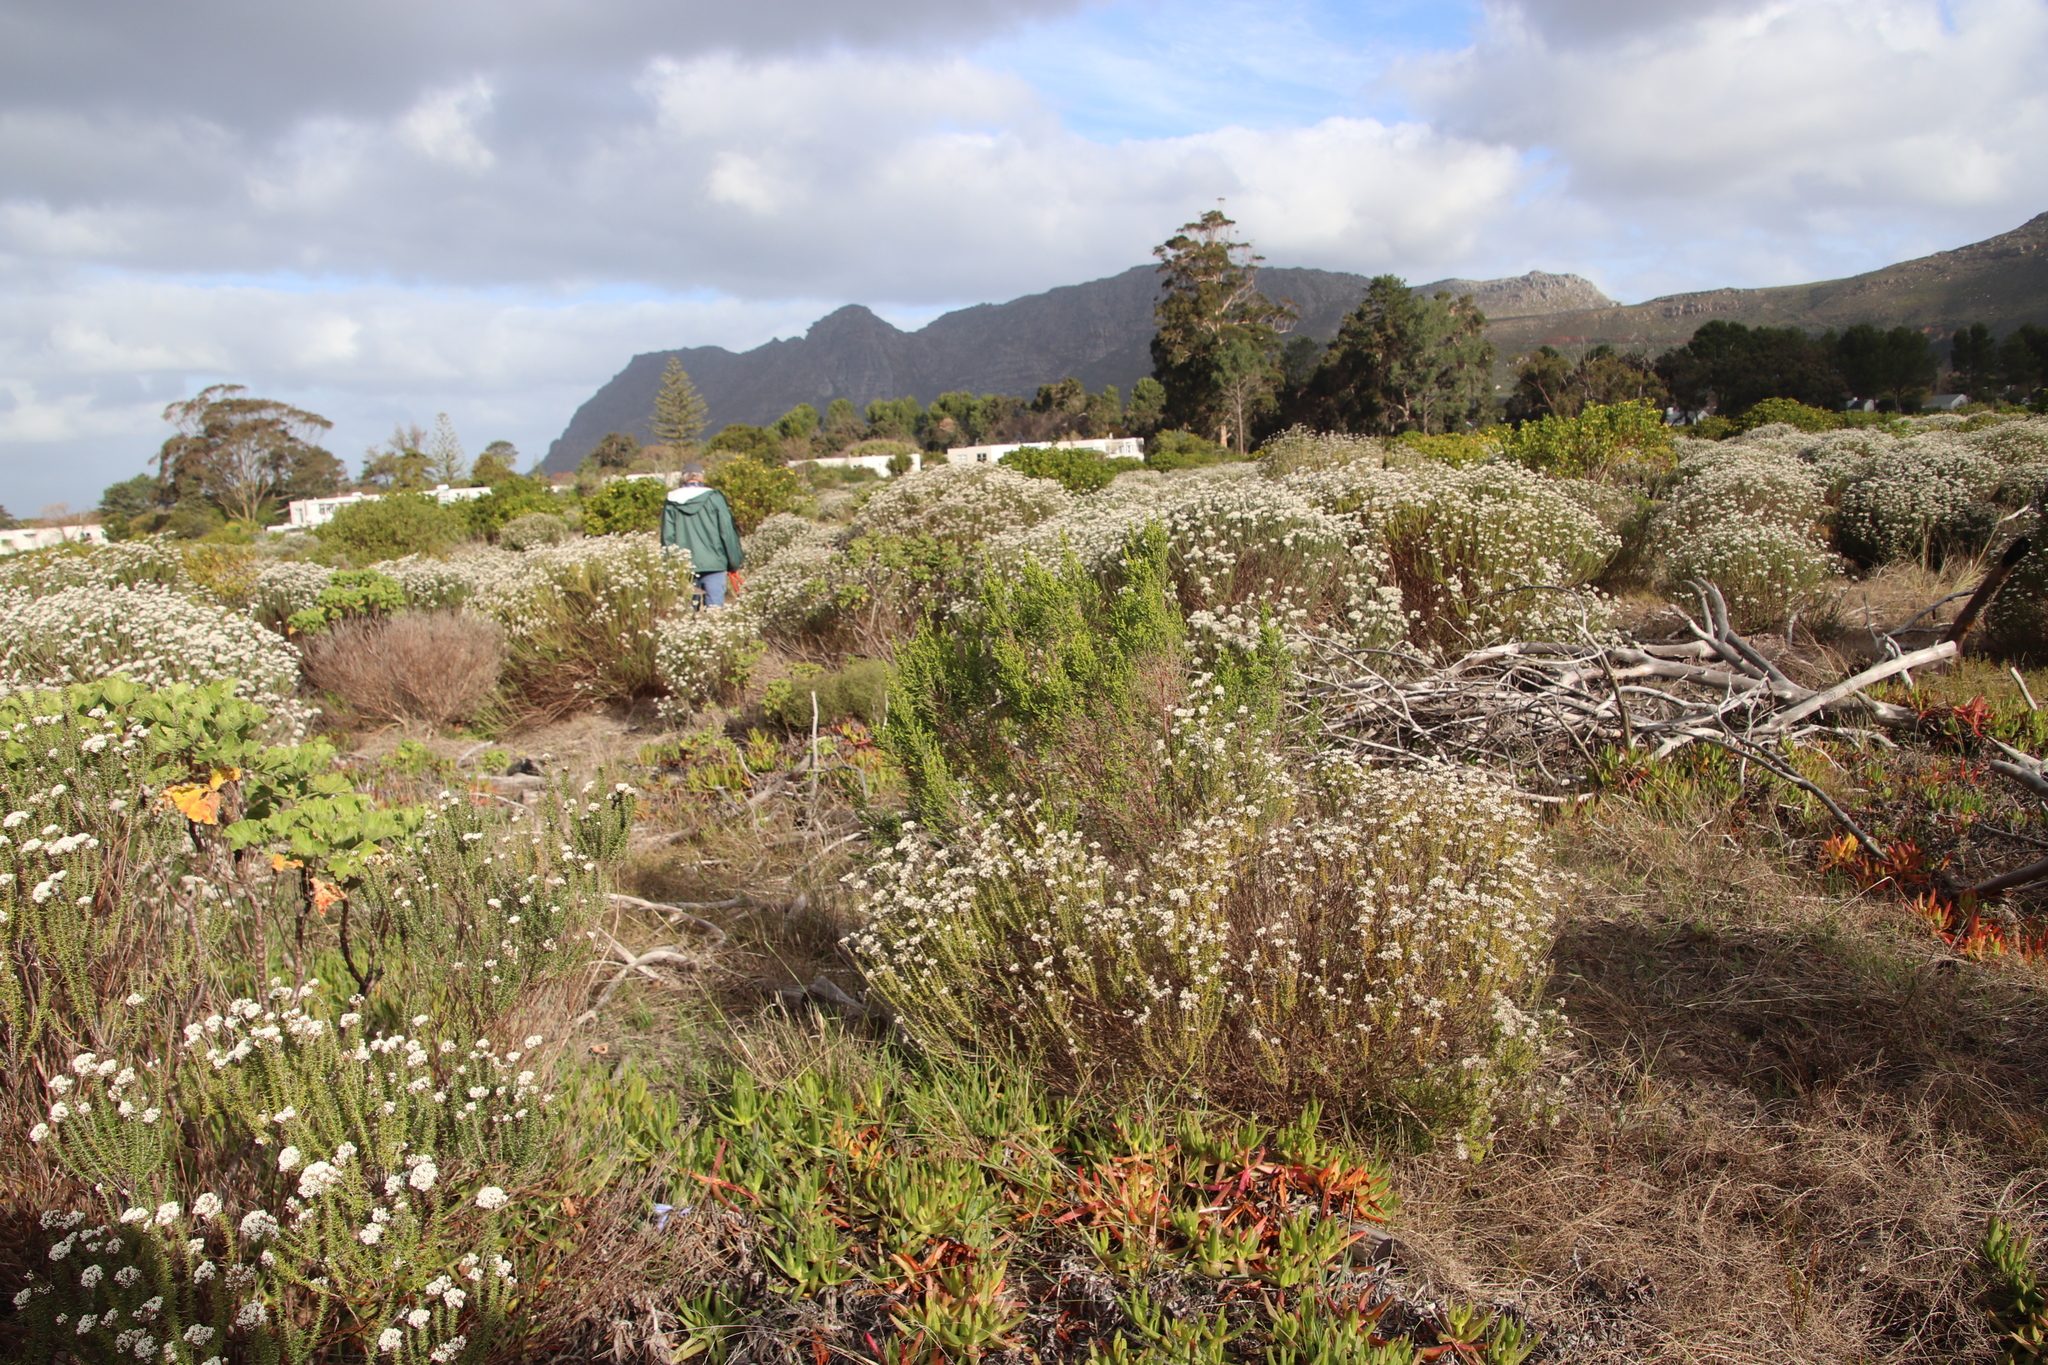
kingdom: Plantae
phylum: Tracheophyta
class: Magnoliopsida
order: Malvales
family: Thymelaeaceae
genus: Passerina
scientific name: Passerina corymbosa
